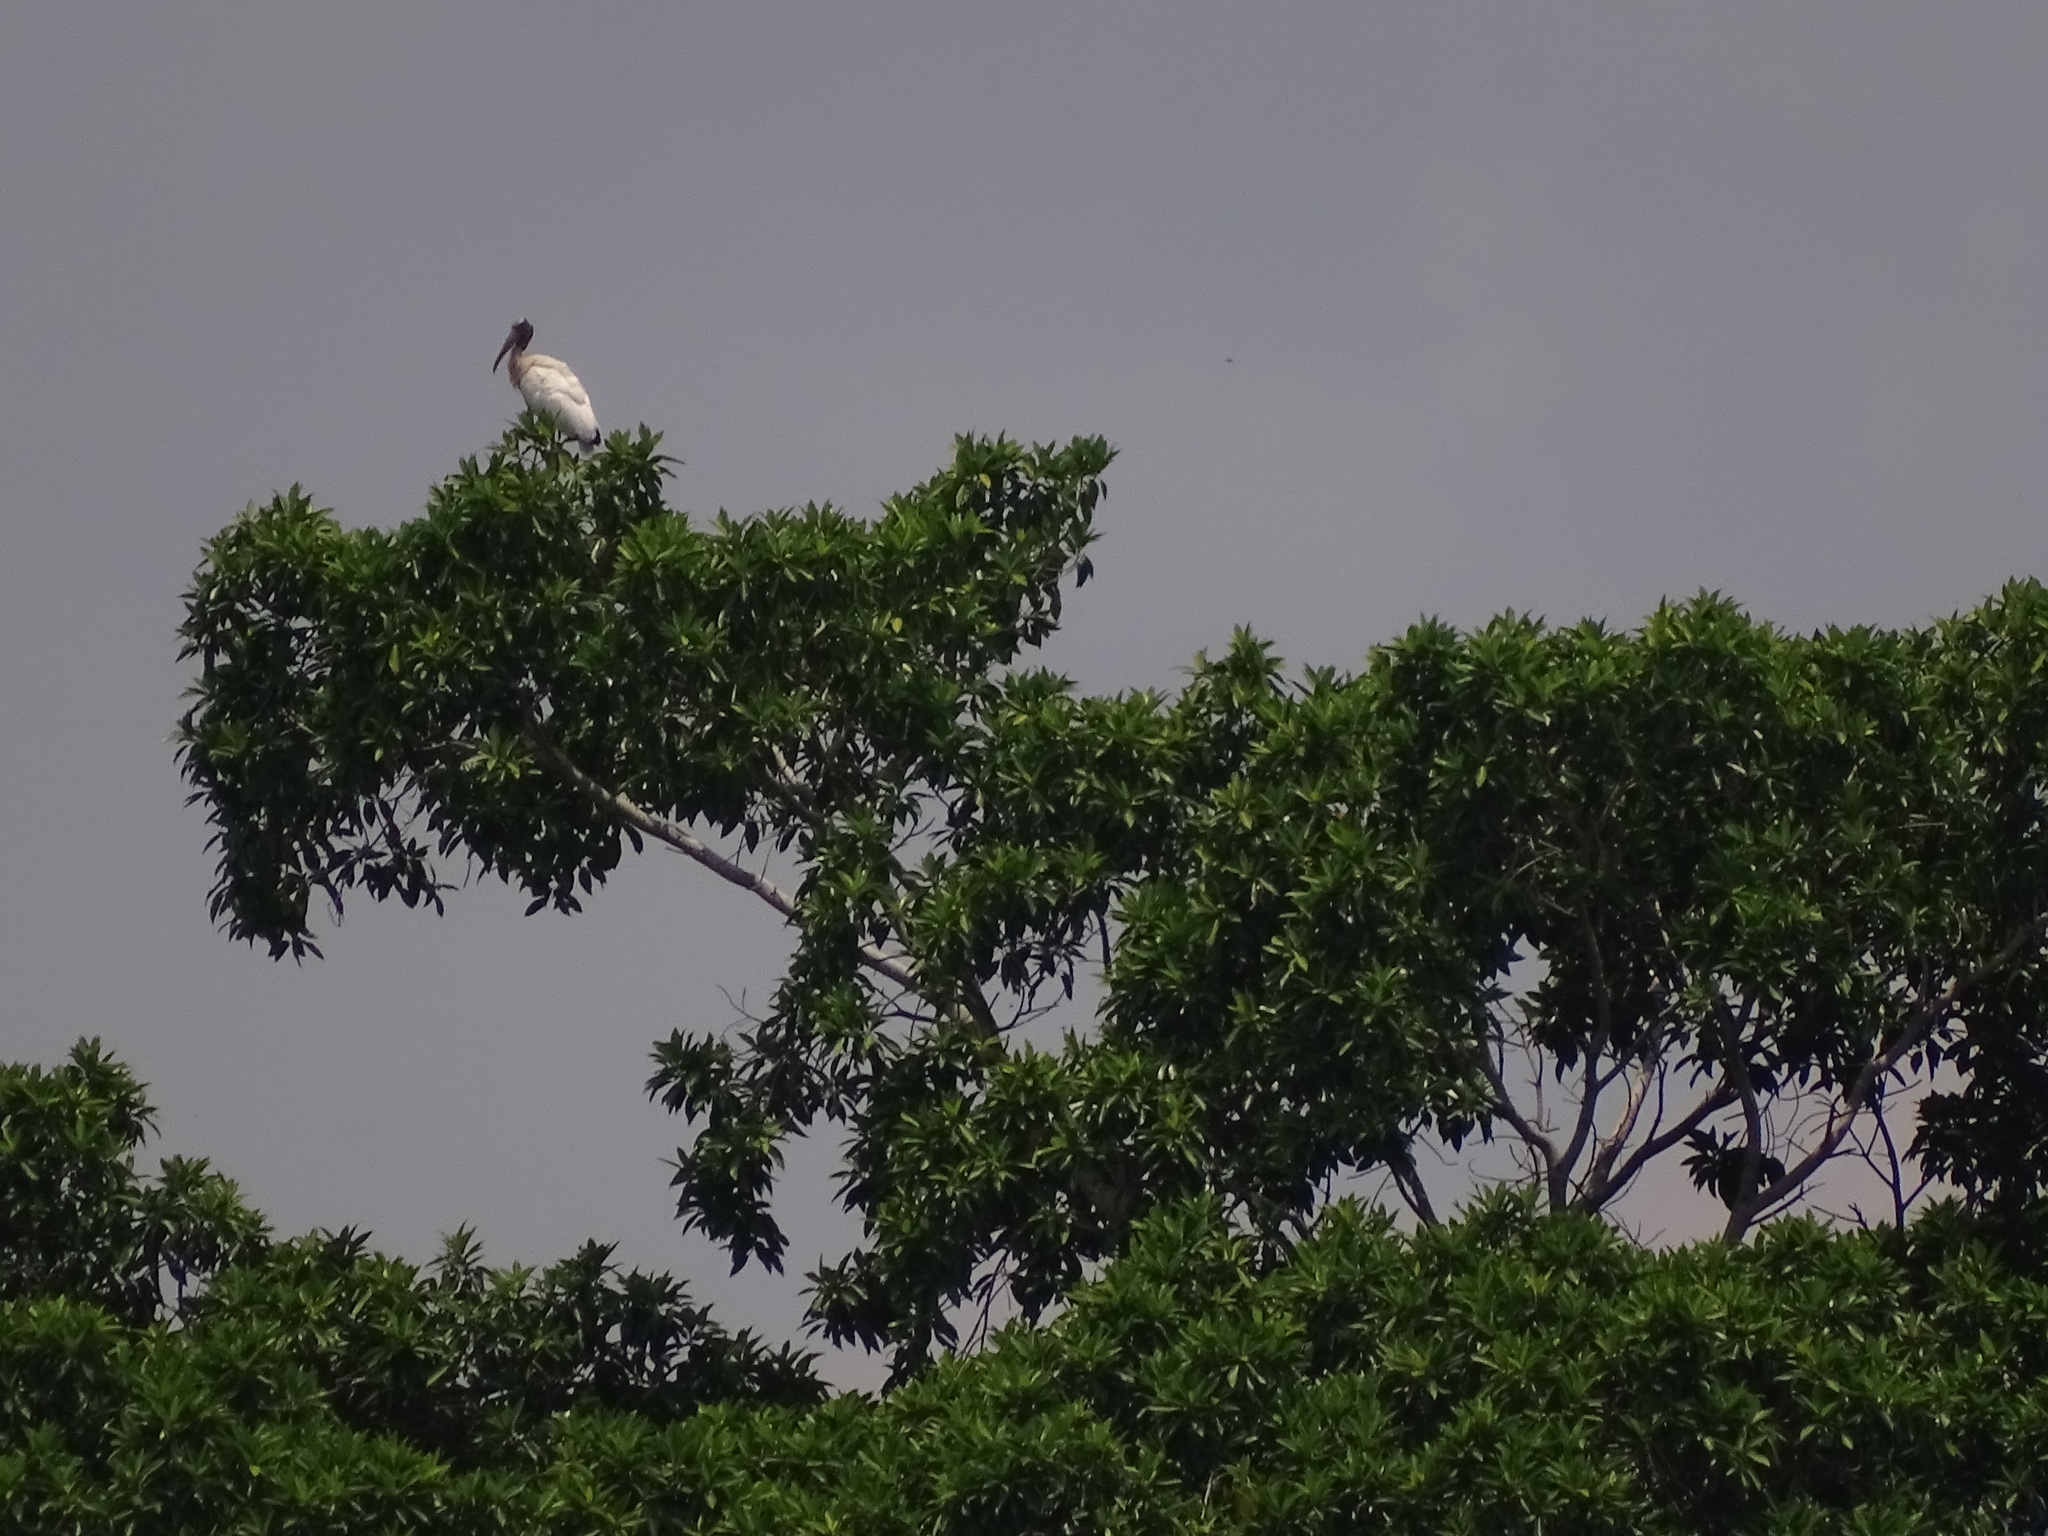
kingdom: Animalia
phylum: Chordata
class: Aves
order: Ciconiiformes
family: Ciconiidae
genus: Mycteria
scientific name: Mycteria americana
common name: Wood stork
